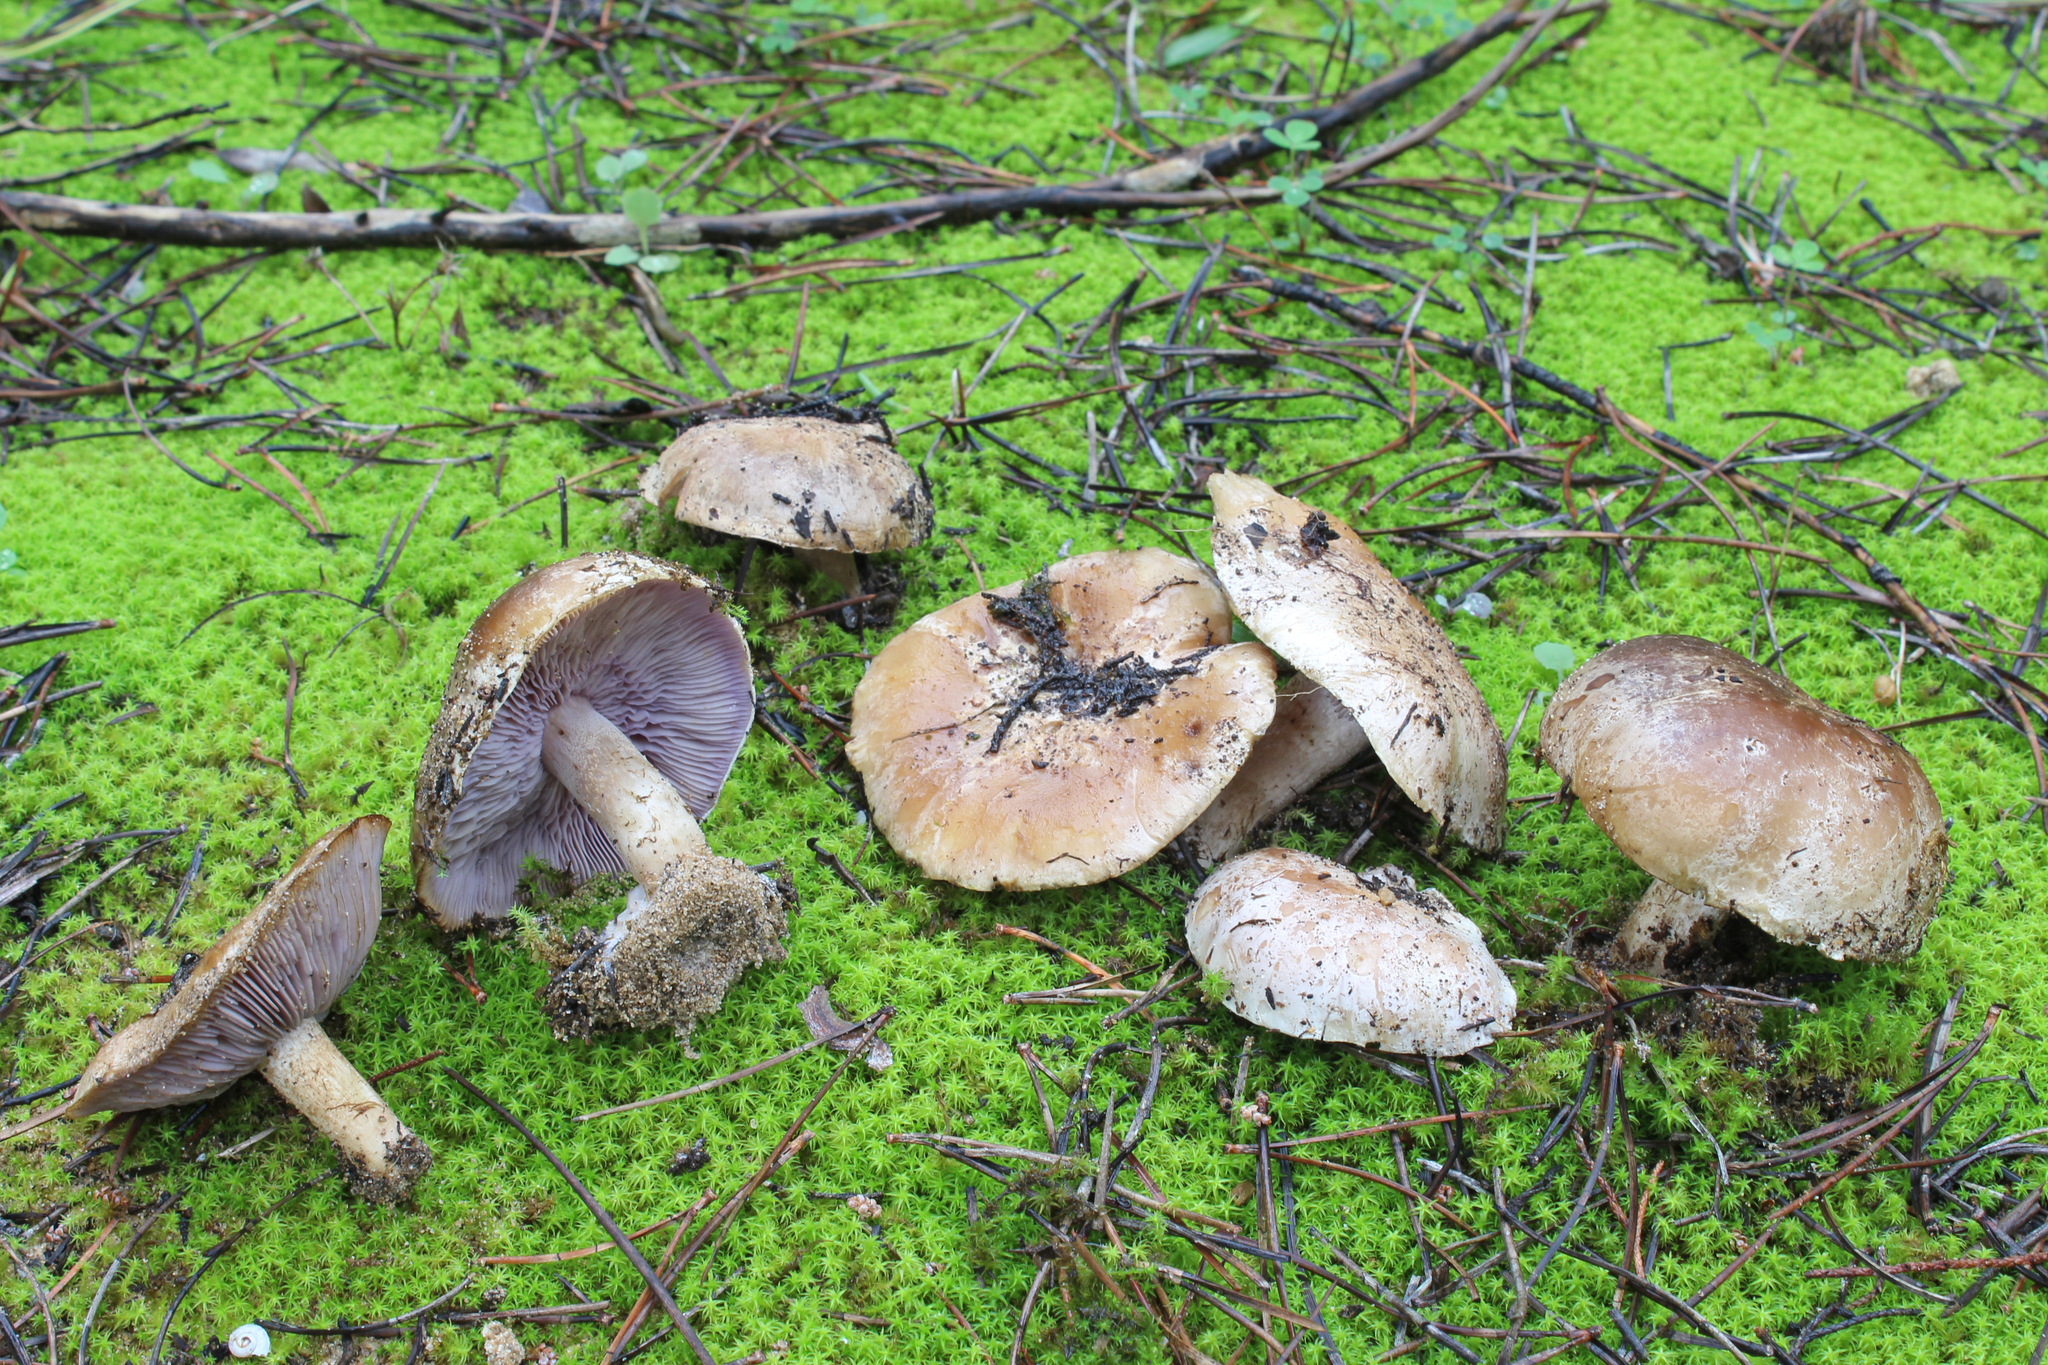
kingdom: Fungi
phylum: Basidiomycota
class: Agaricomycetes
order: Agaricales
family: Tricholomataceae
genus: Tricholosporum
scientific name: Tricholosporum tetragonosporum
